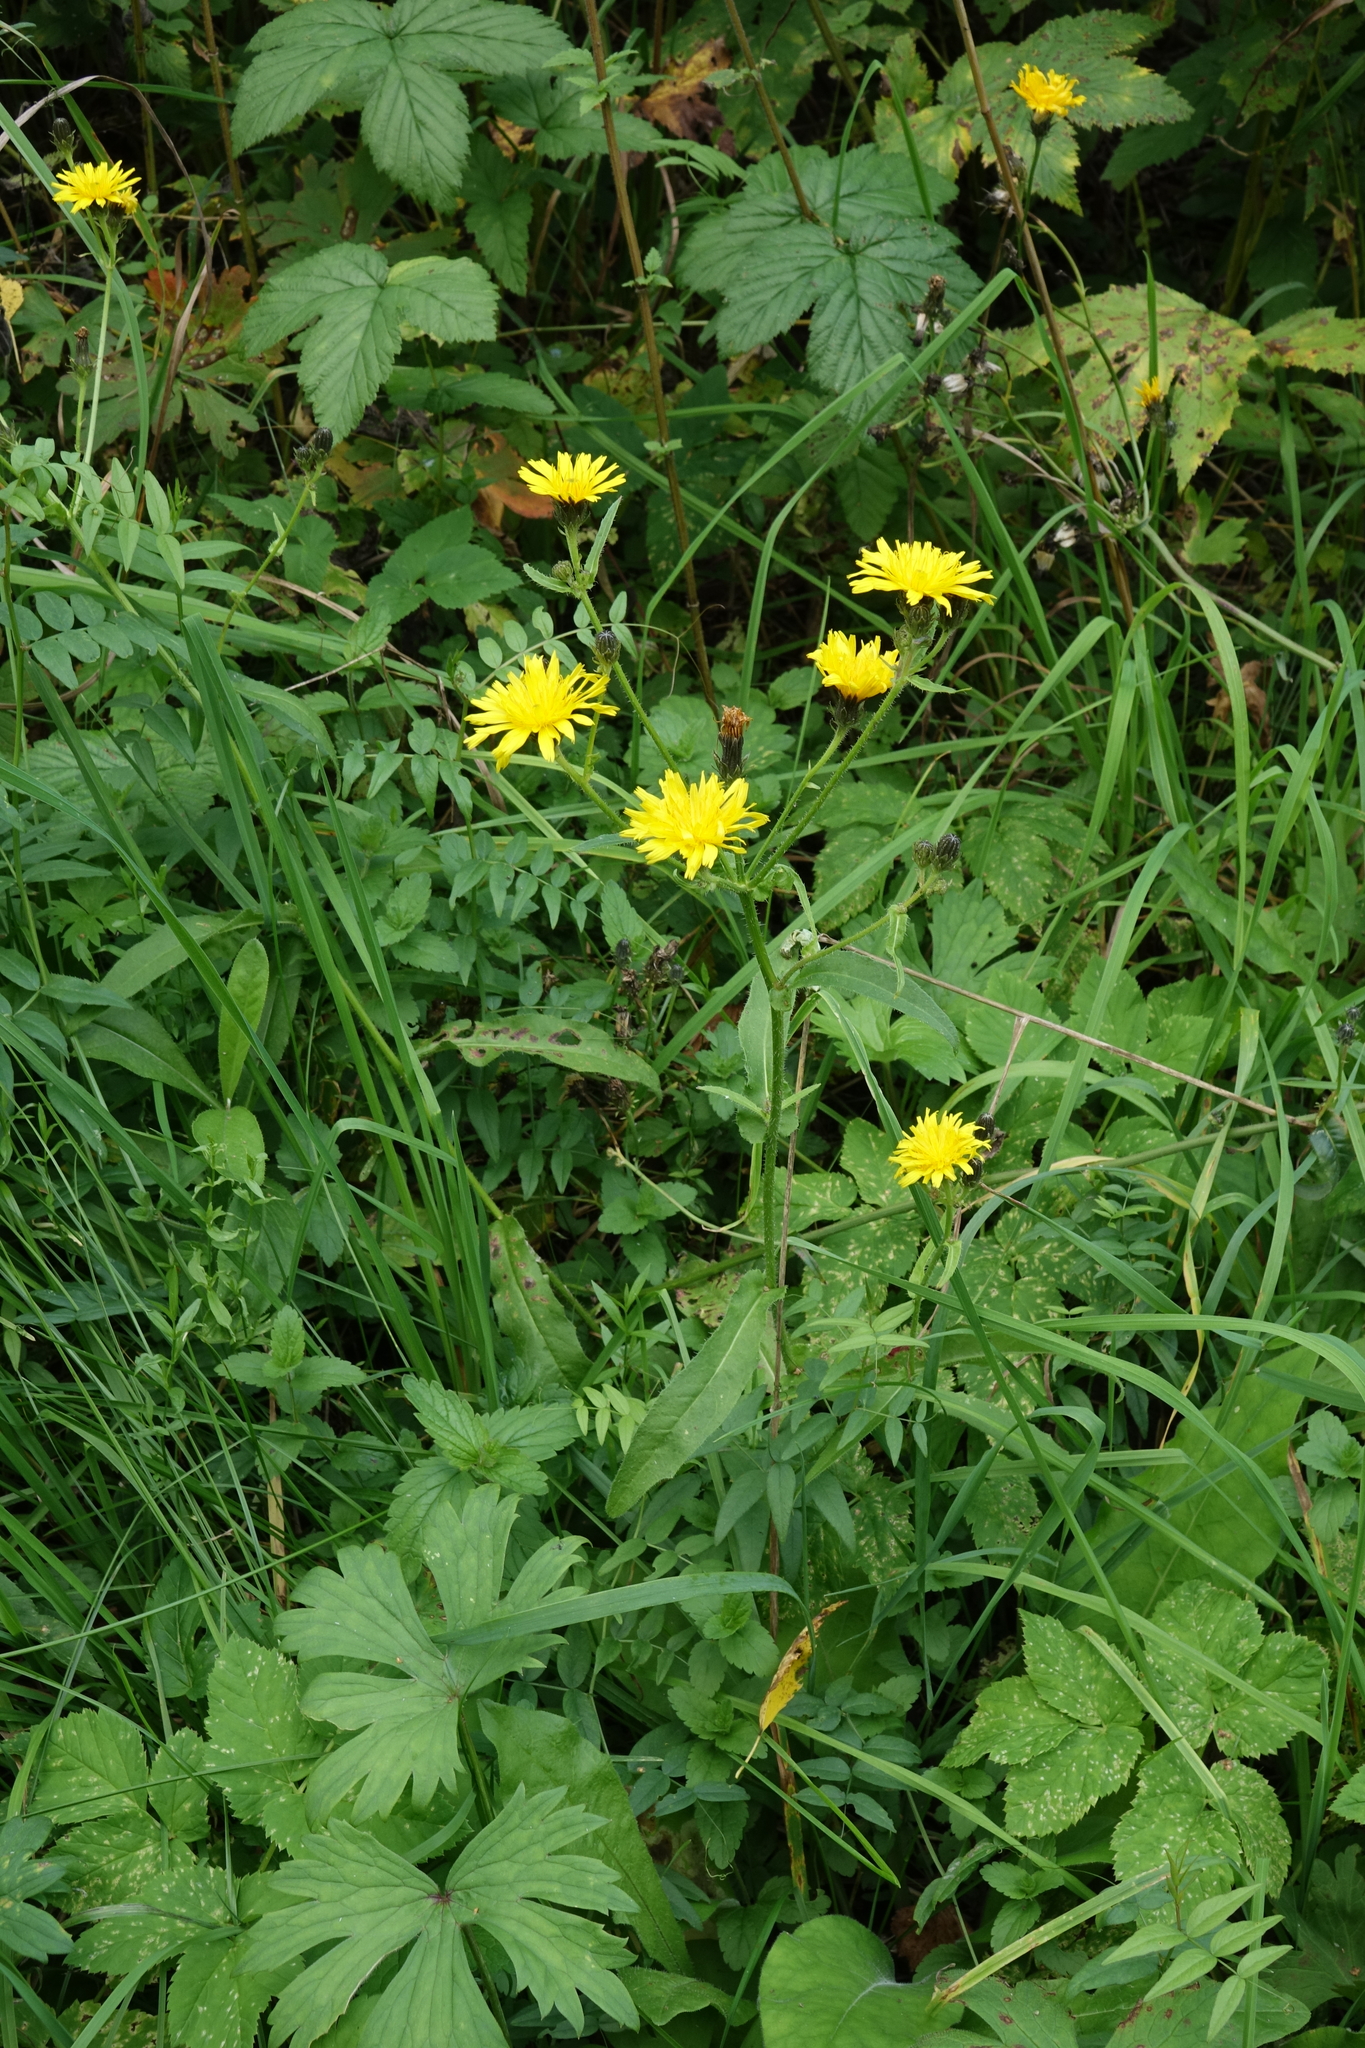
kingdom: Plantae
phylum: Tracheophyta
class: Magnoliopsida
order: Asterales
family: Asteraceae
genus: Picris
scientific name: Picris hieracioides
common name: Hawkweed oxtongue
